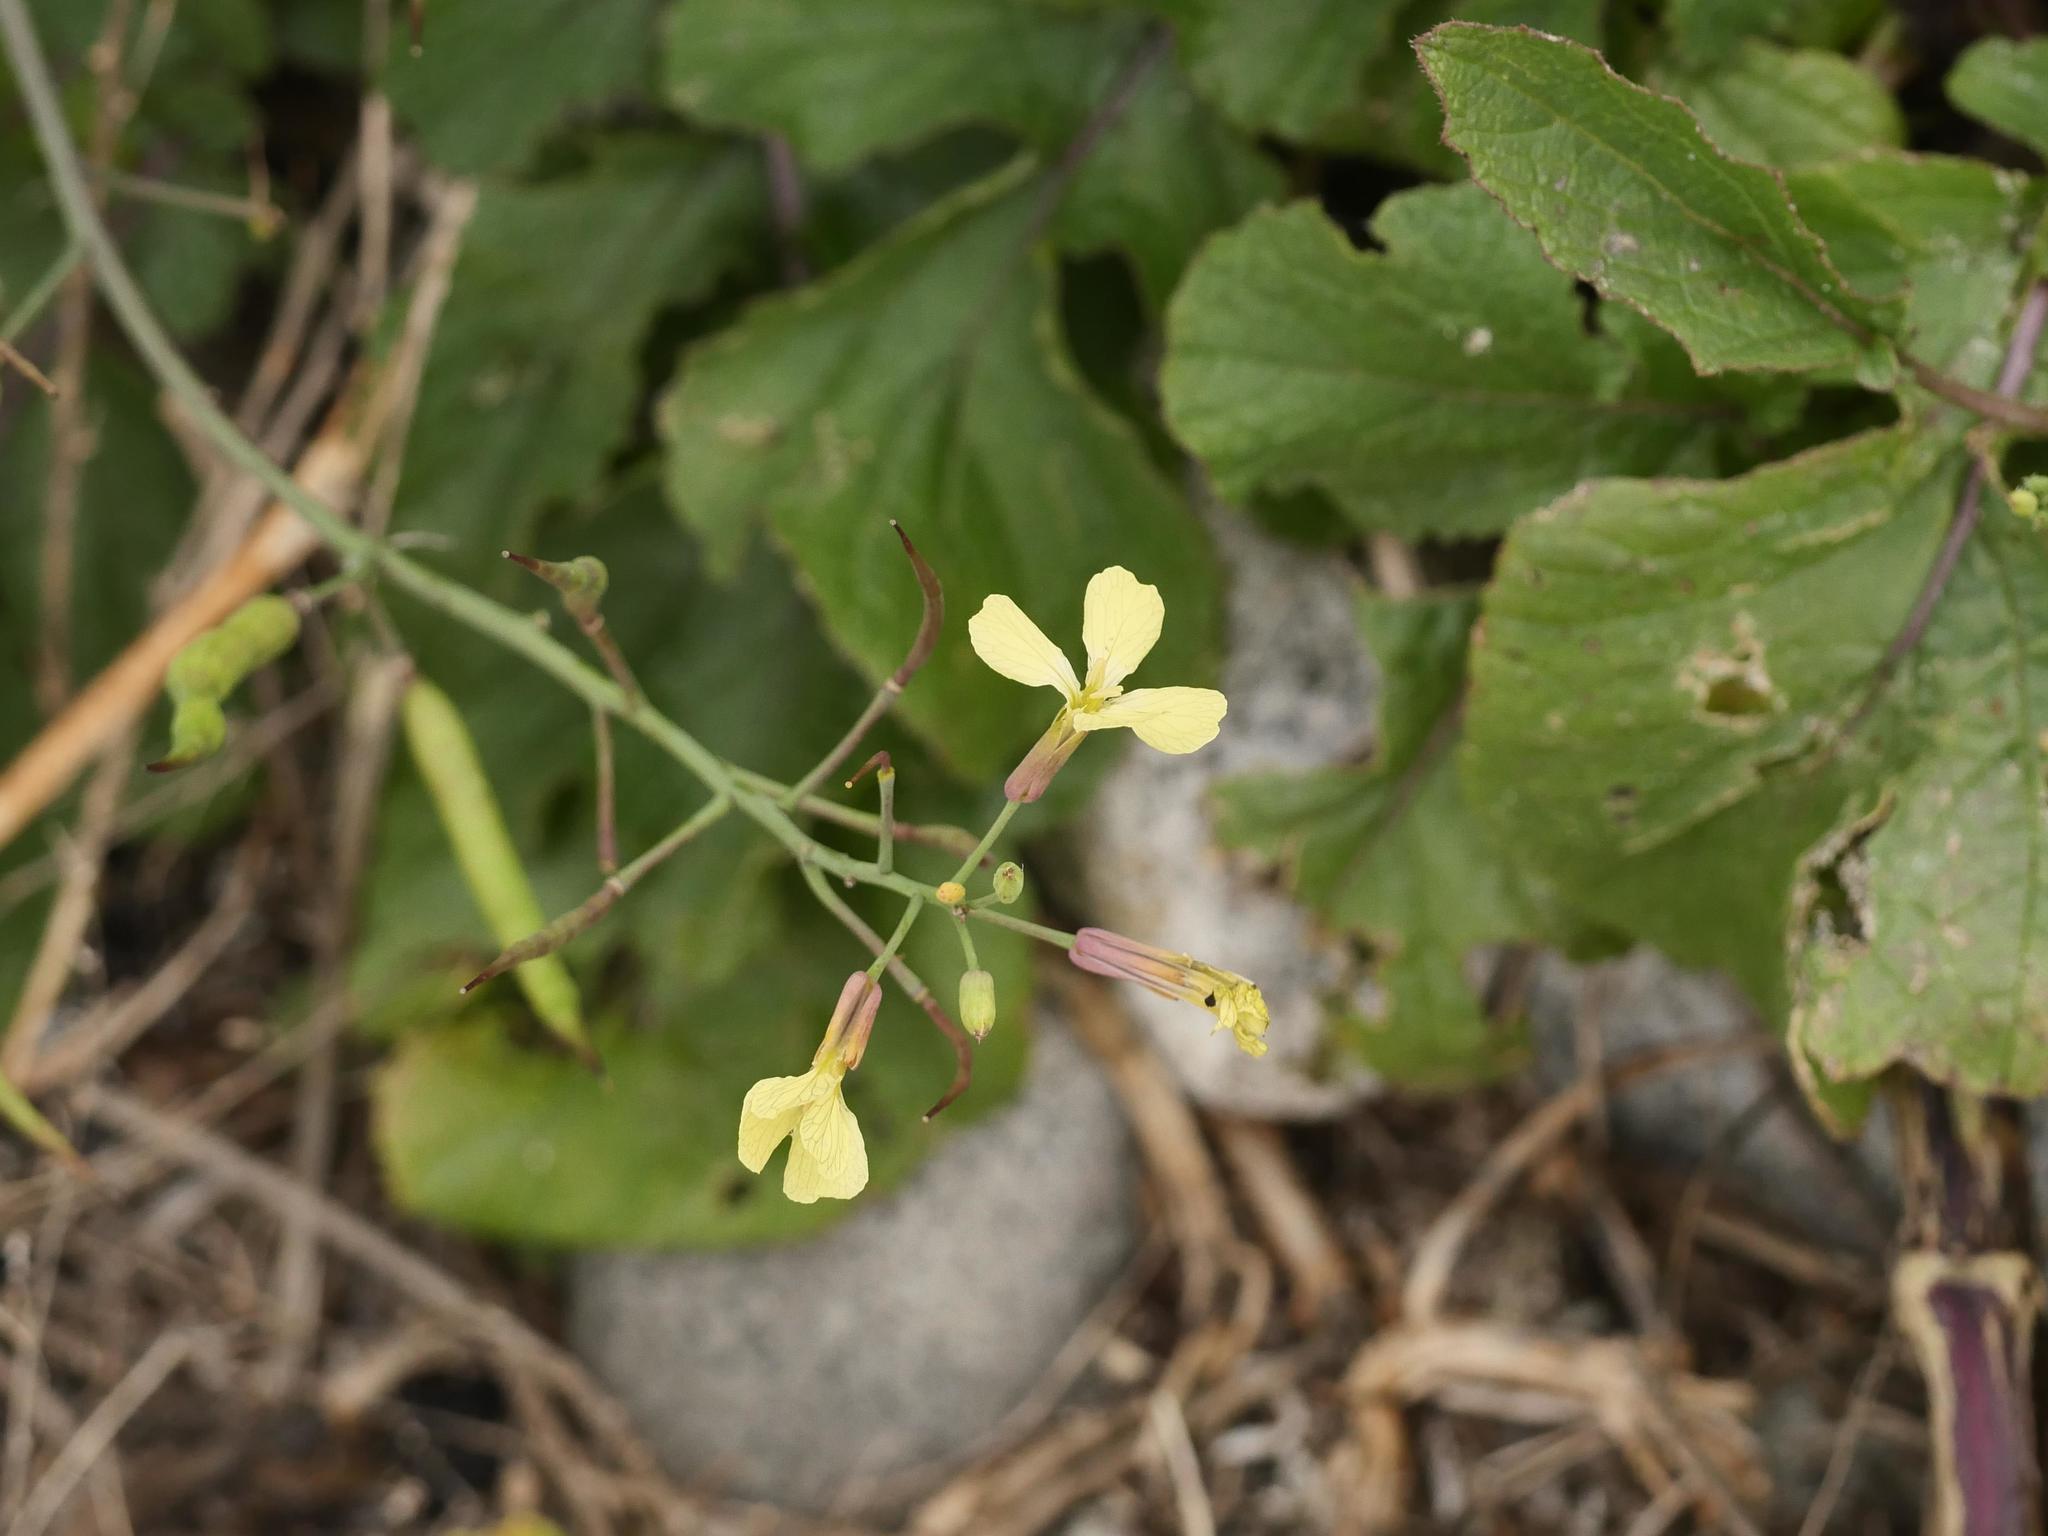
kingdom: Plantae
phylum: Tracheophyta
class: Magnoliopsida
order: Brassicales
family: Brassicaceae
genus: Raphanus
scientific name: Raphanus raphanistrum
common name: Wild radish
